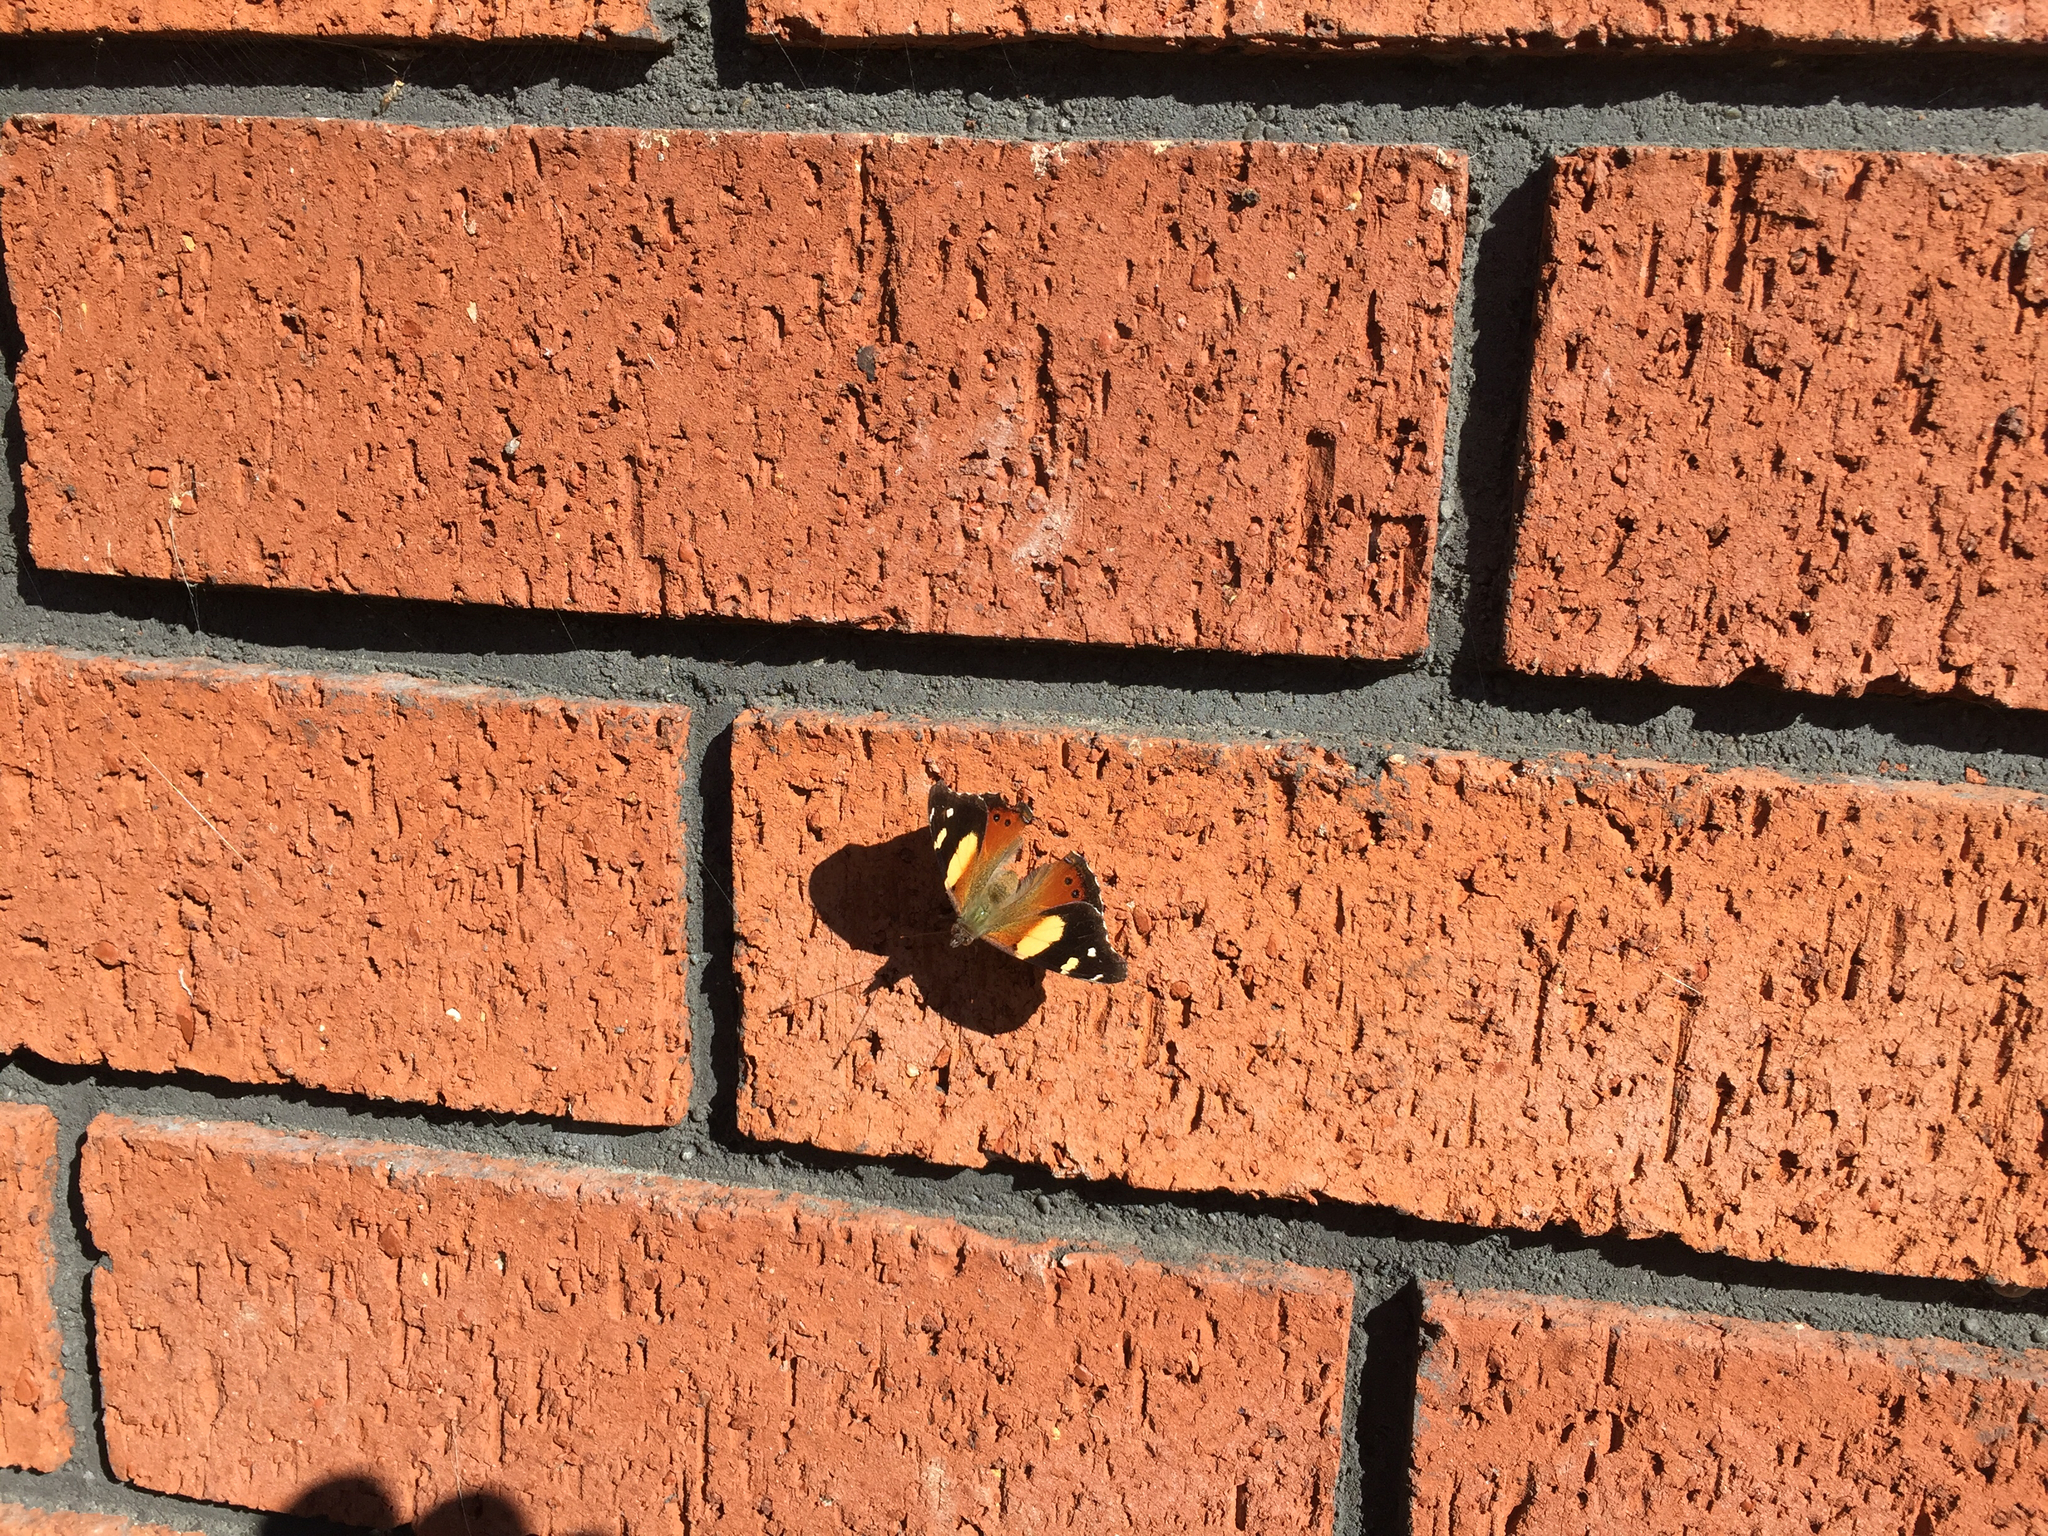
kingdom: Animalia
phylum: Arthropoda
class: Insecta
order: Lepidoptera
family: Nymphalidae
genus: Vanessa
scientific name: Vanessa itea
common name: Yellow admiral
